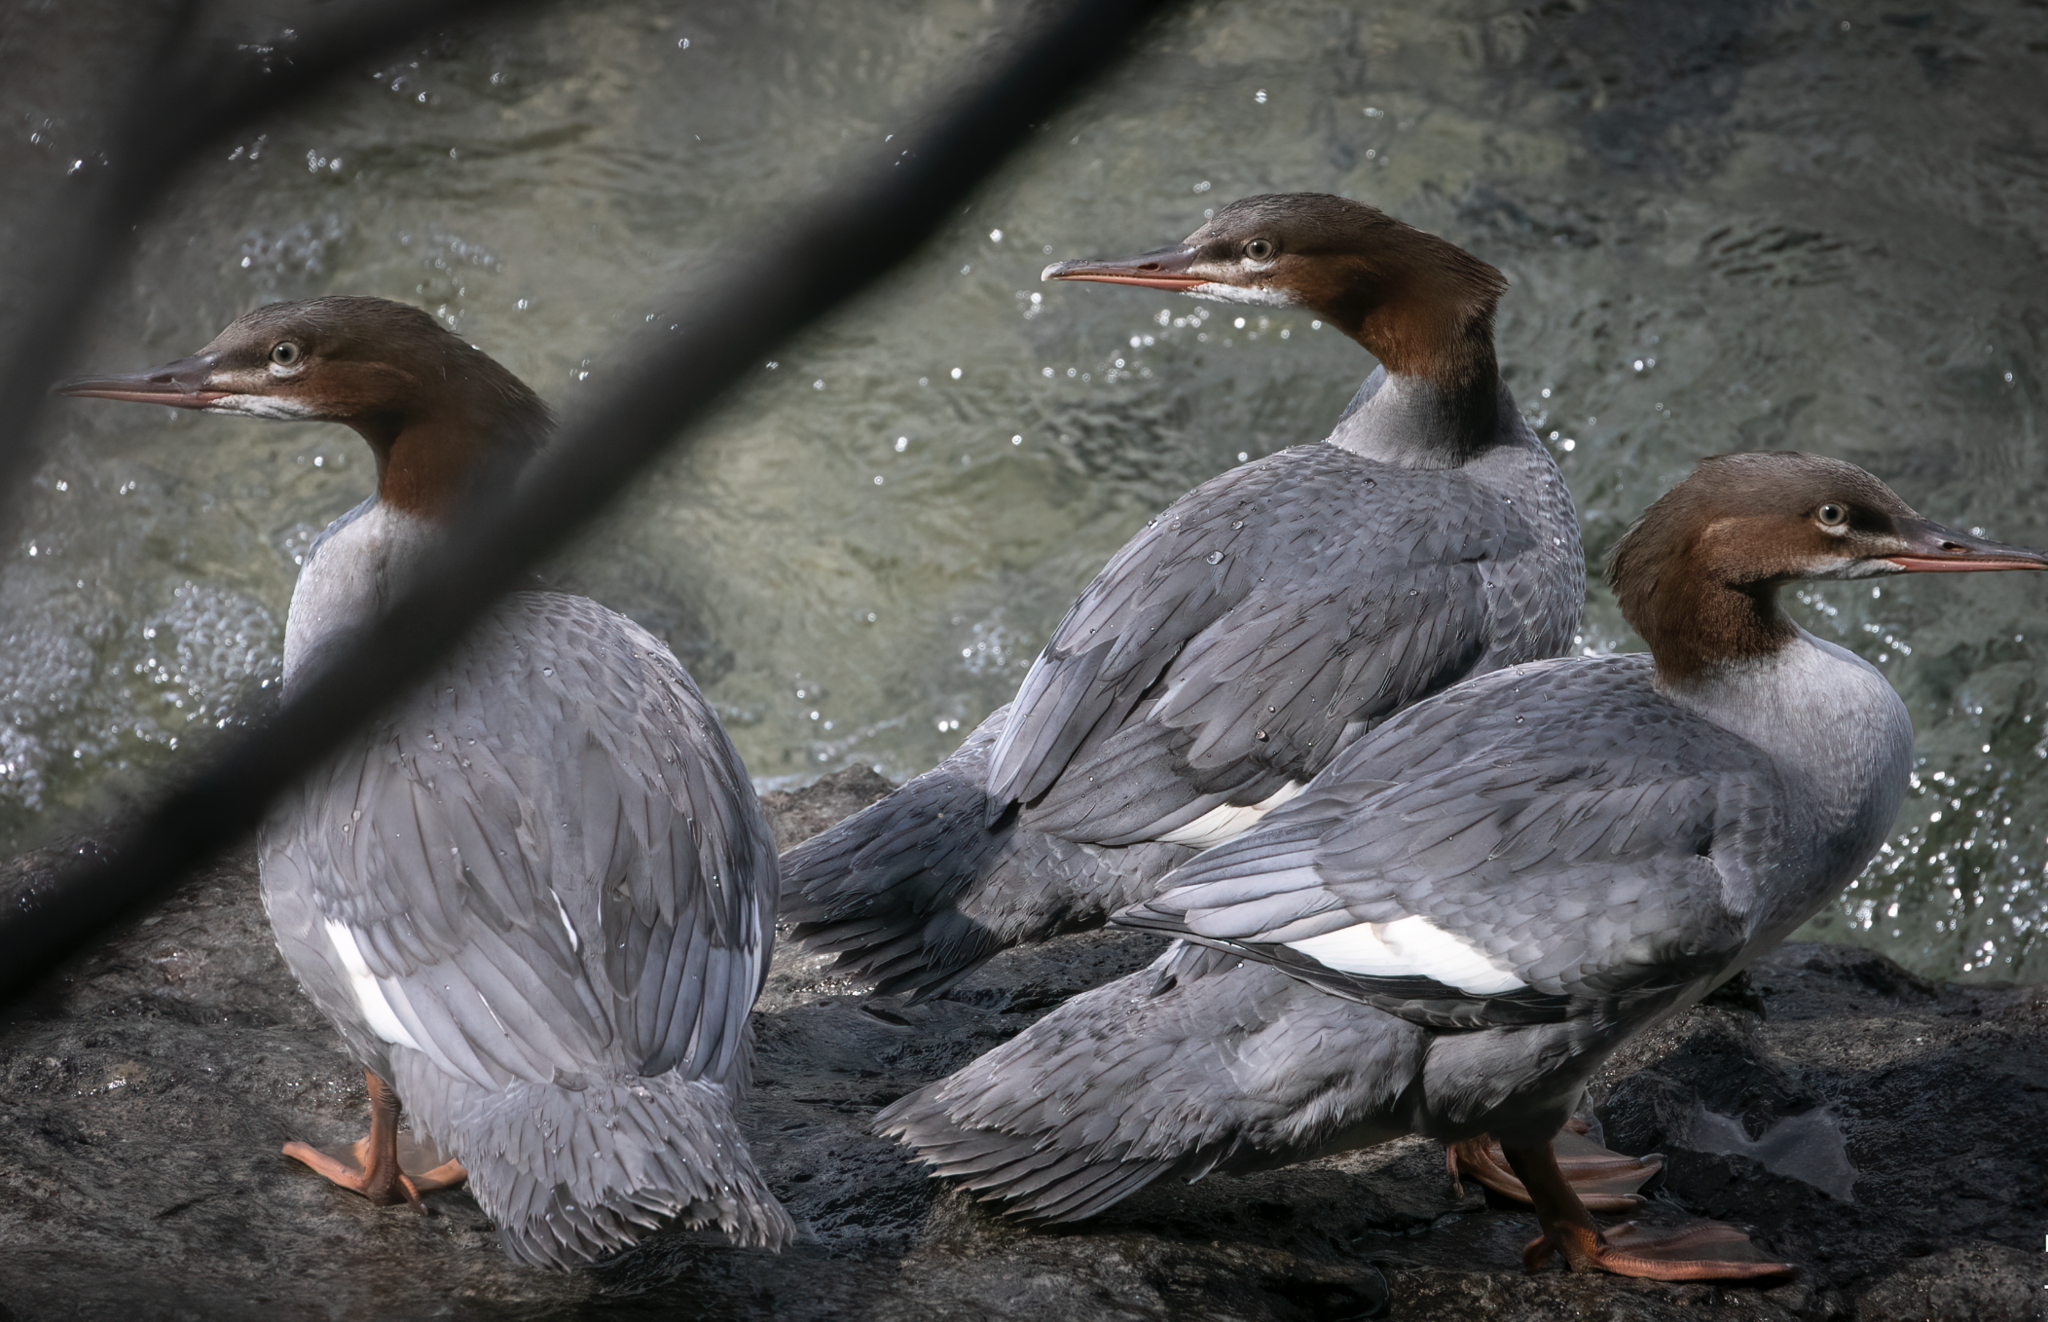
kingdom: Animalia
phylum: Chordata
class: Aves
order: Anseriformes
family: Anatidae
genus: Mergus
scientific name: Mergus merganser
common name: Common merganser
